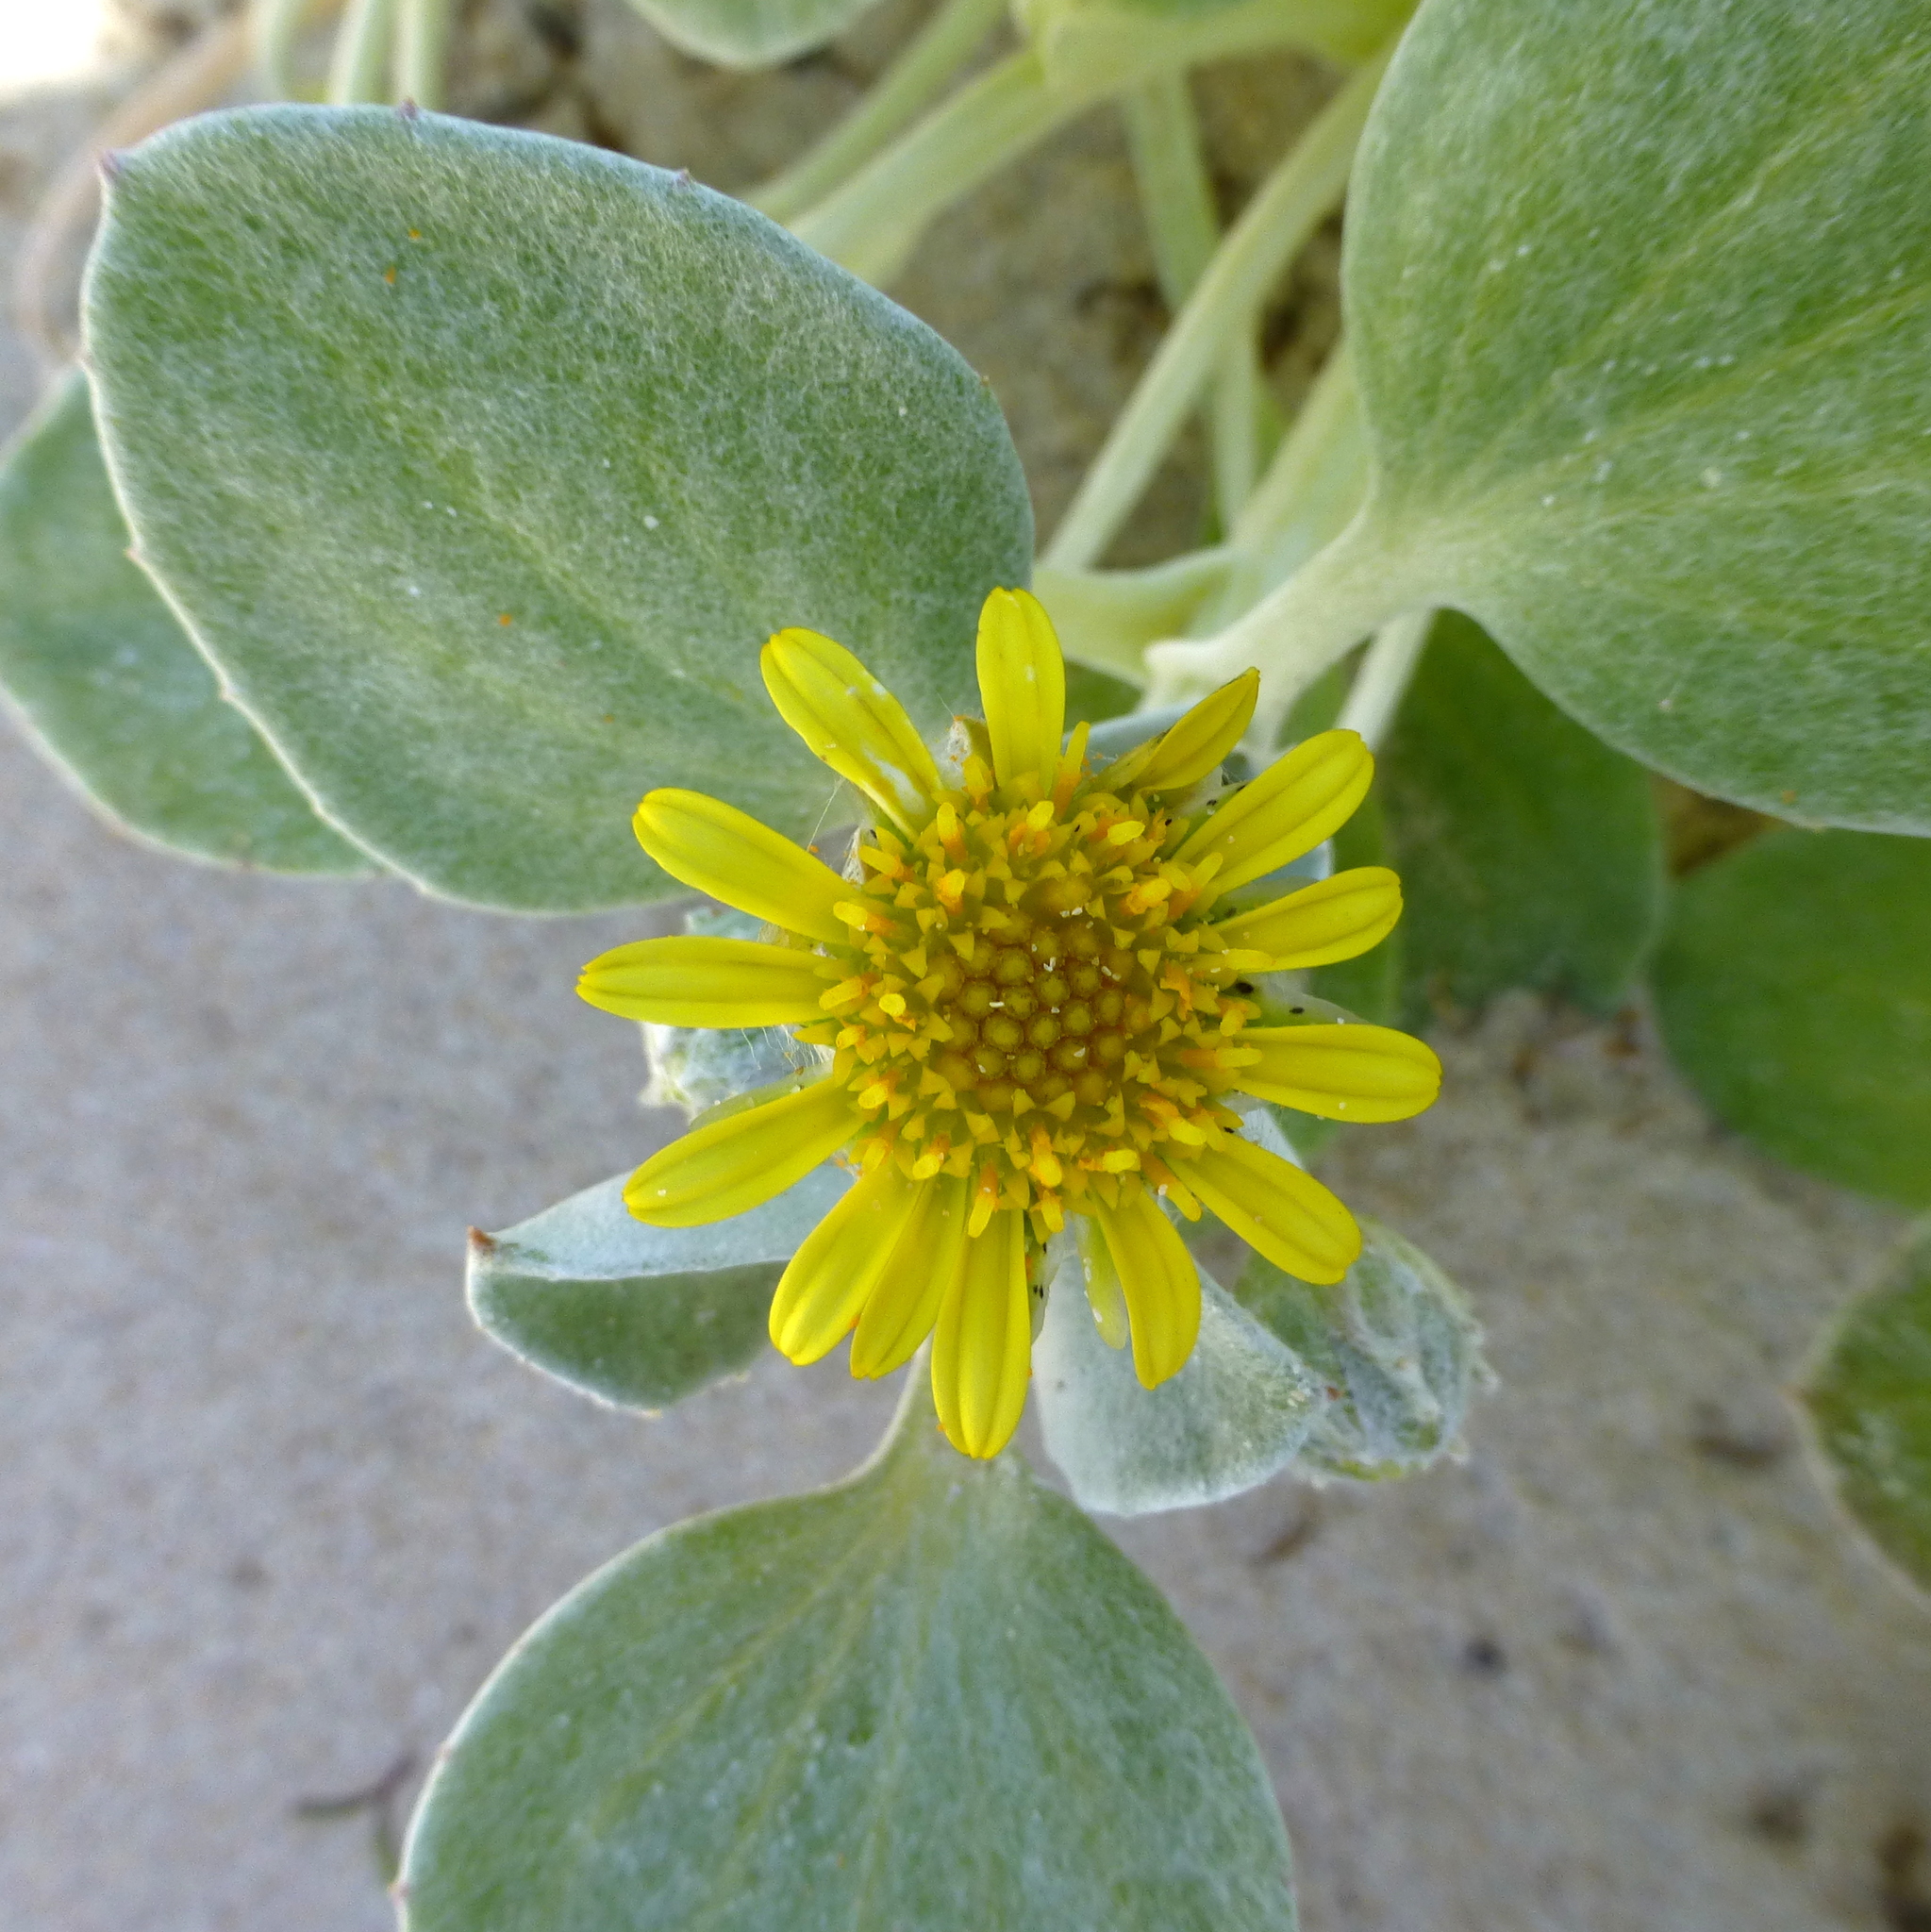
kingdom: Plantae
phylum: Tracheophyta
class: Magnoliopsida
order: Asterales
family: Asteraceae
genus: Arctotheca
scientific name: Arctotheca populifolia
